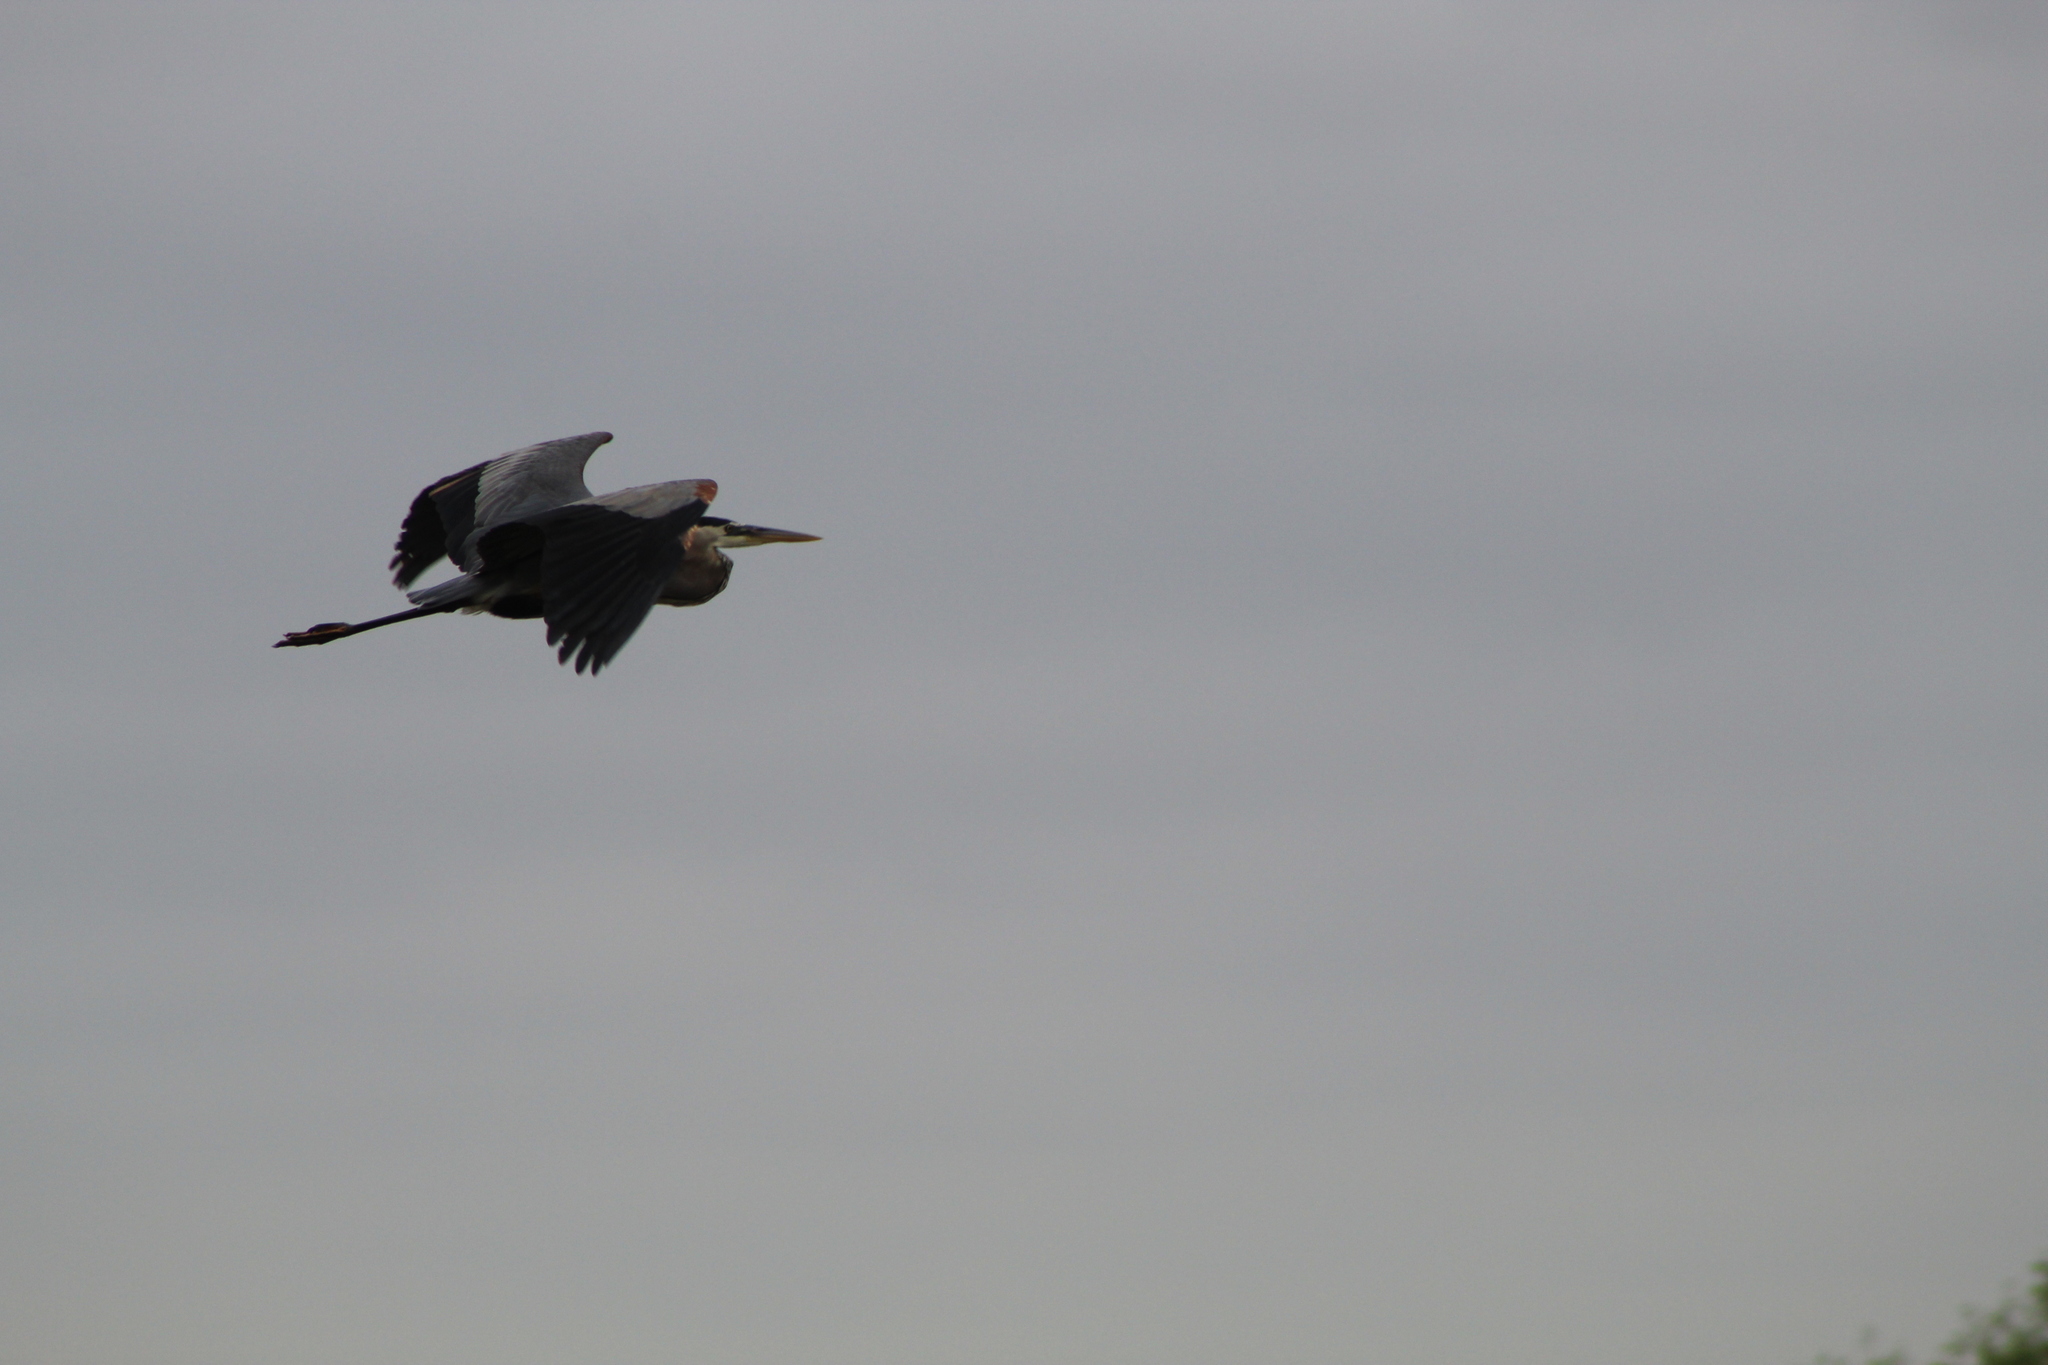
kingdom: Animalia
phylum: Chordata
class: Aves
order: Pelecaniformes
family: Ardeidae
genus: Ardea
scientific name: Ardea herodias
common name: Great blue heron
